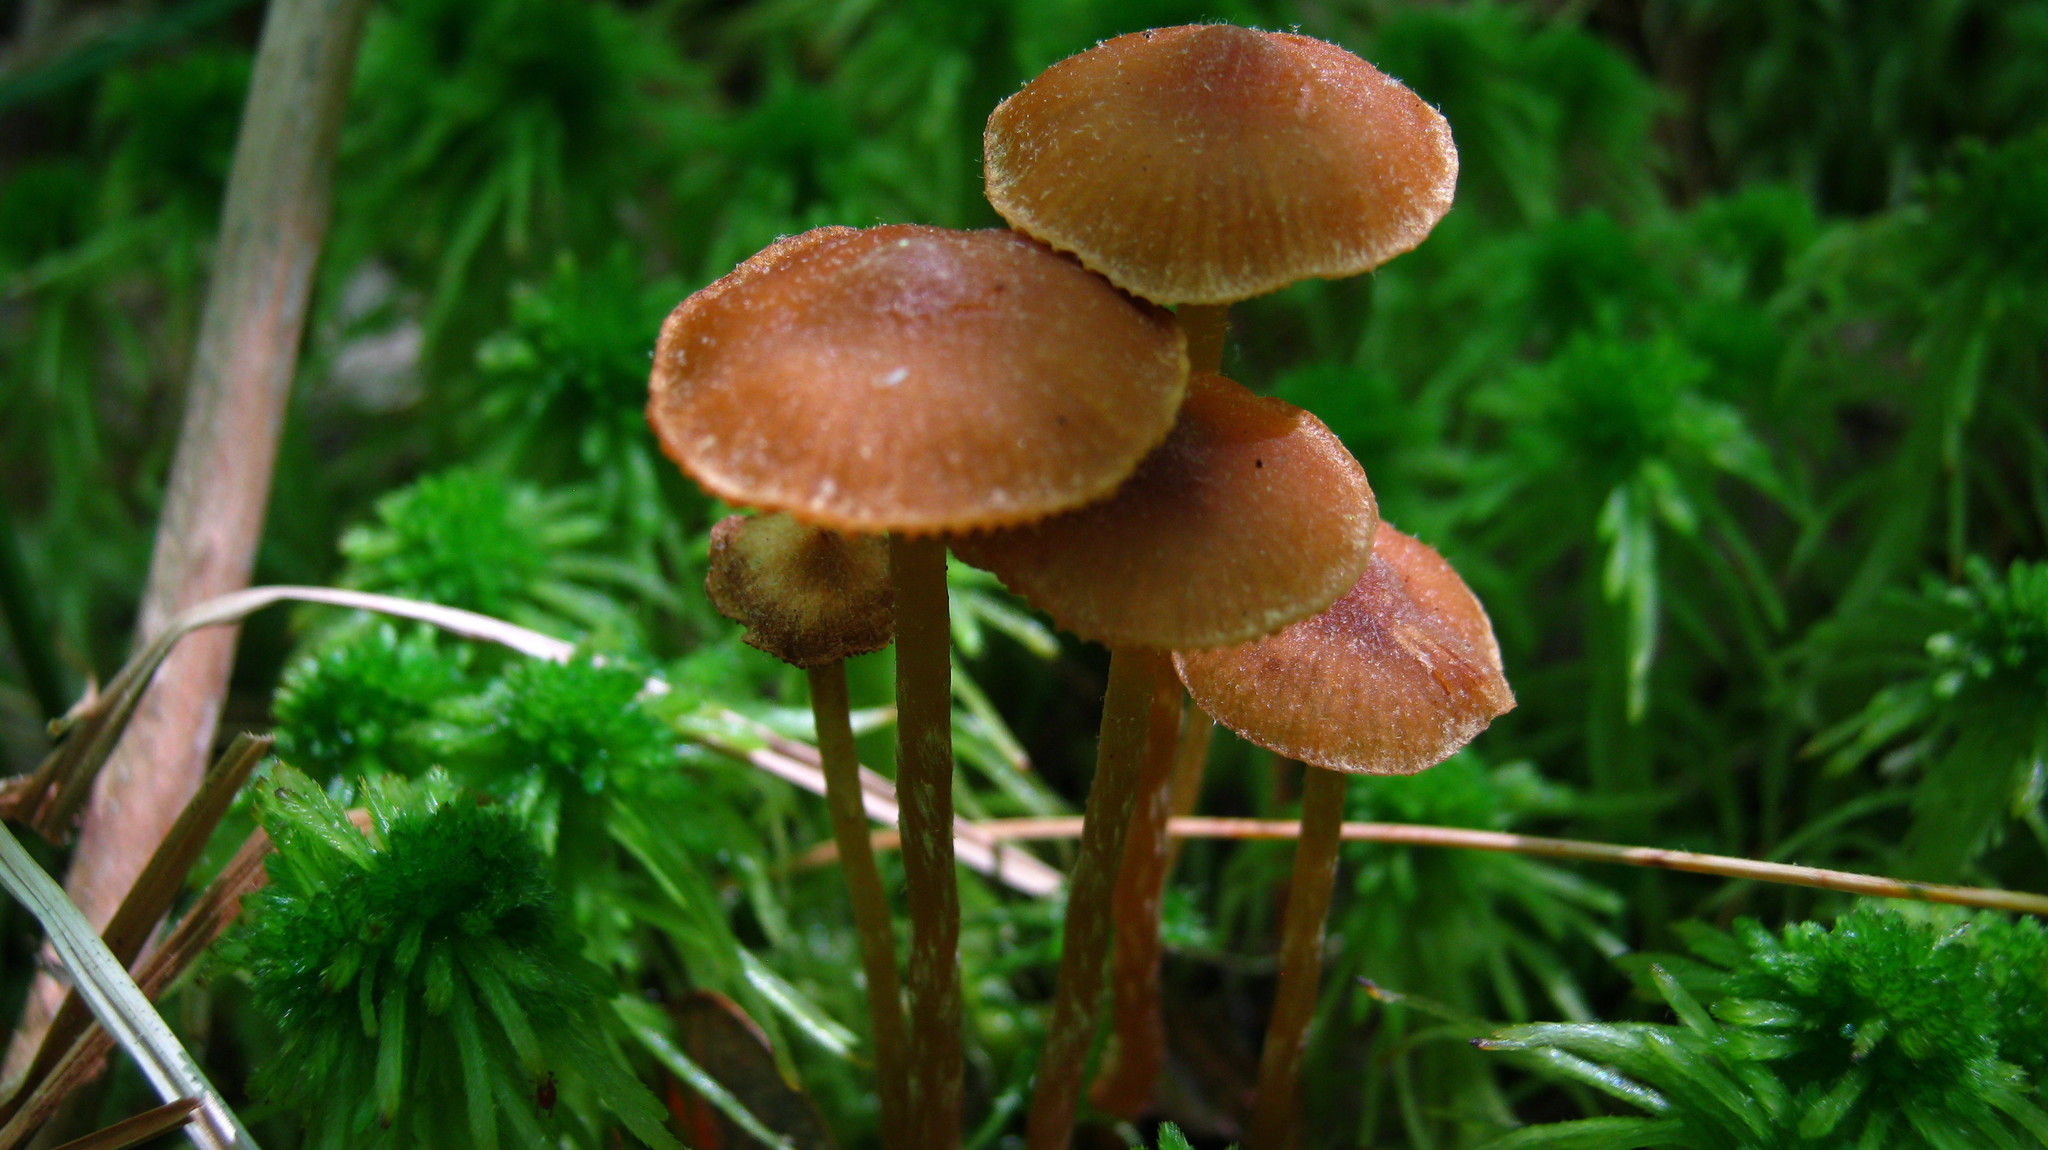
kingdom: Fungi
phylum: Basidiomycota
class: Agaricomycetes
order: Agaricales
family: Hymenogastraceae
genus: Galerina
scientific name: Galerina paludosa
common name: Bog bell
